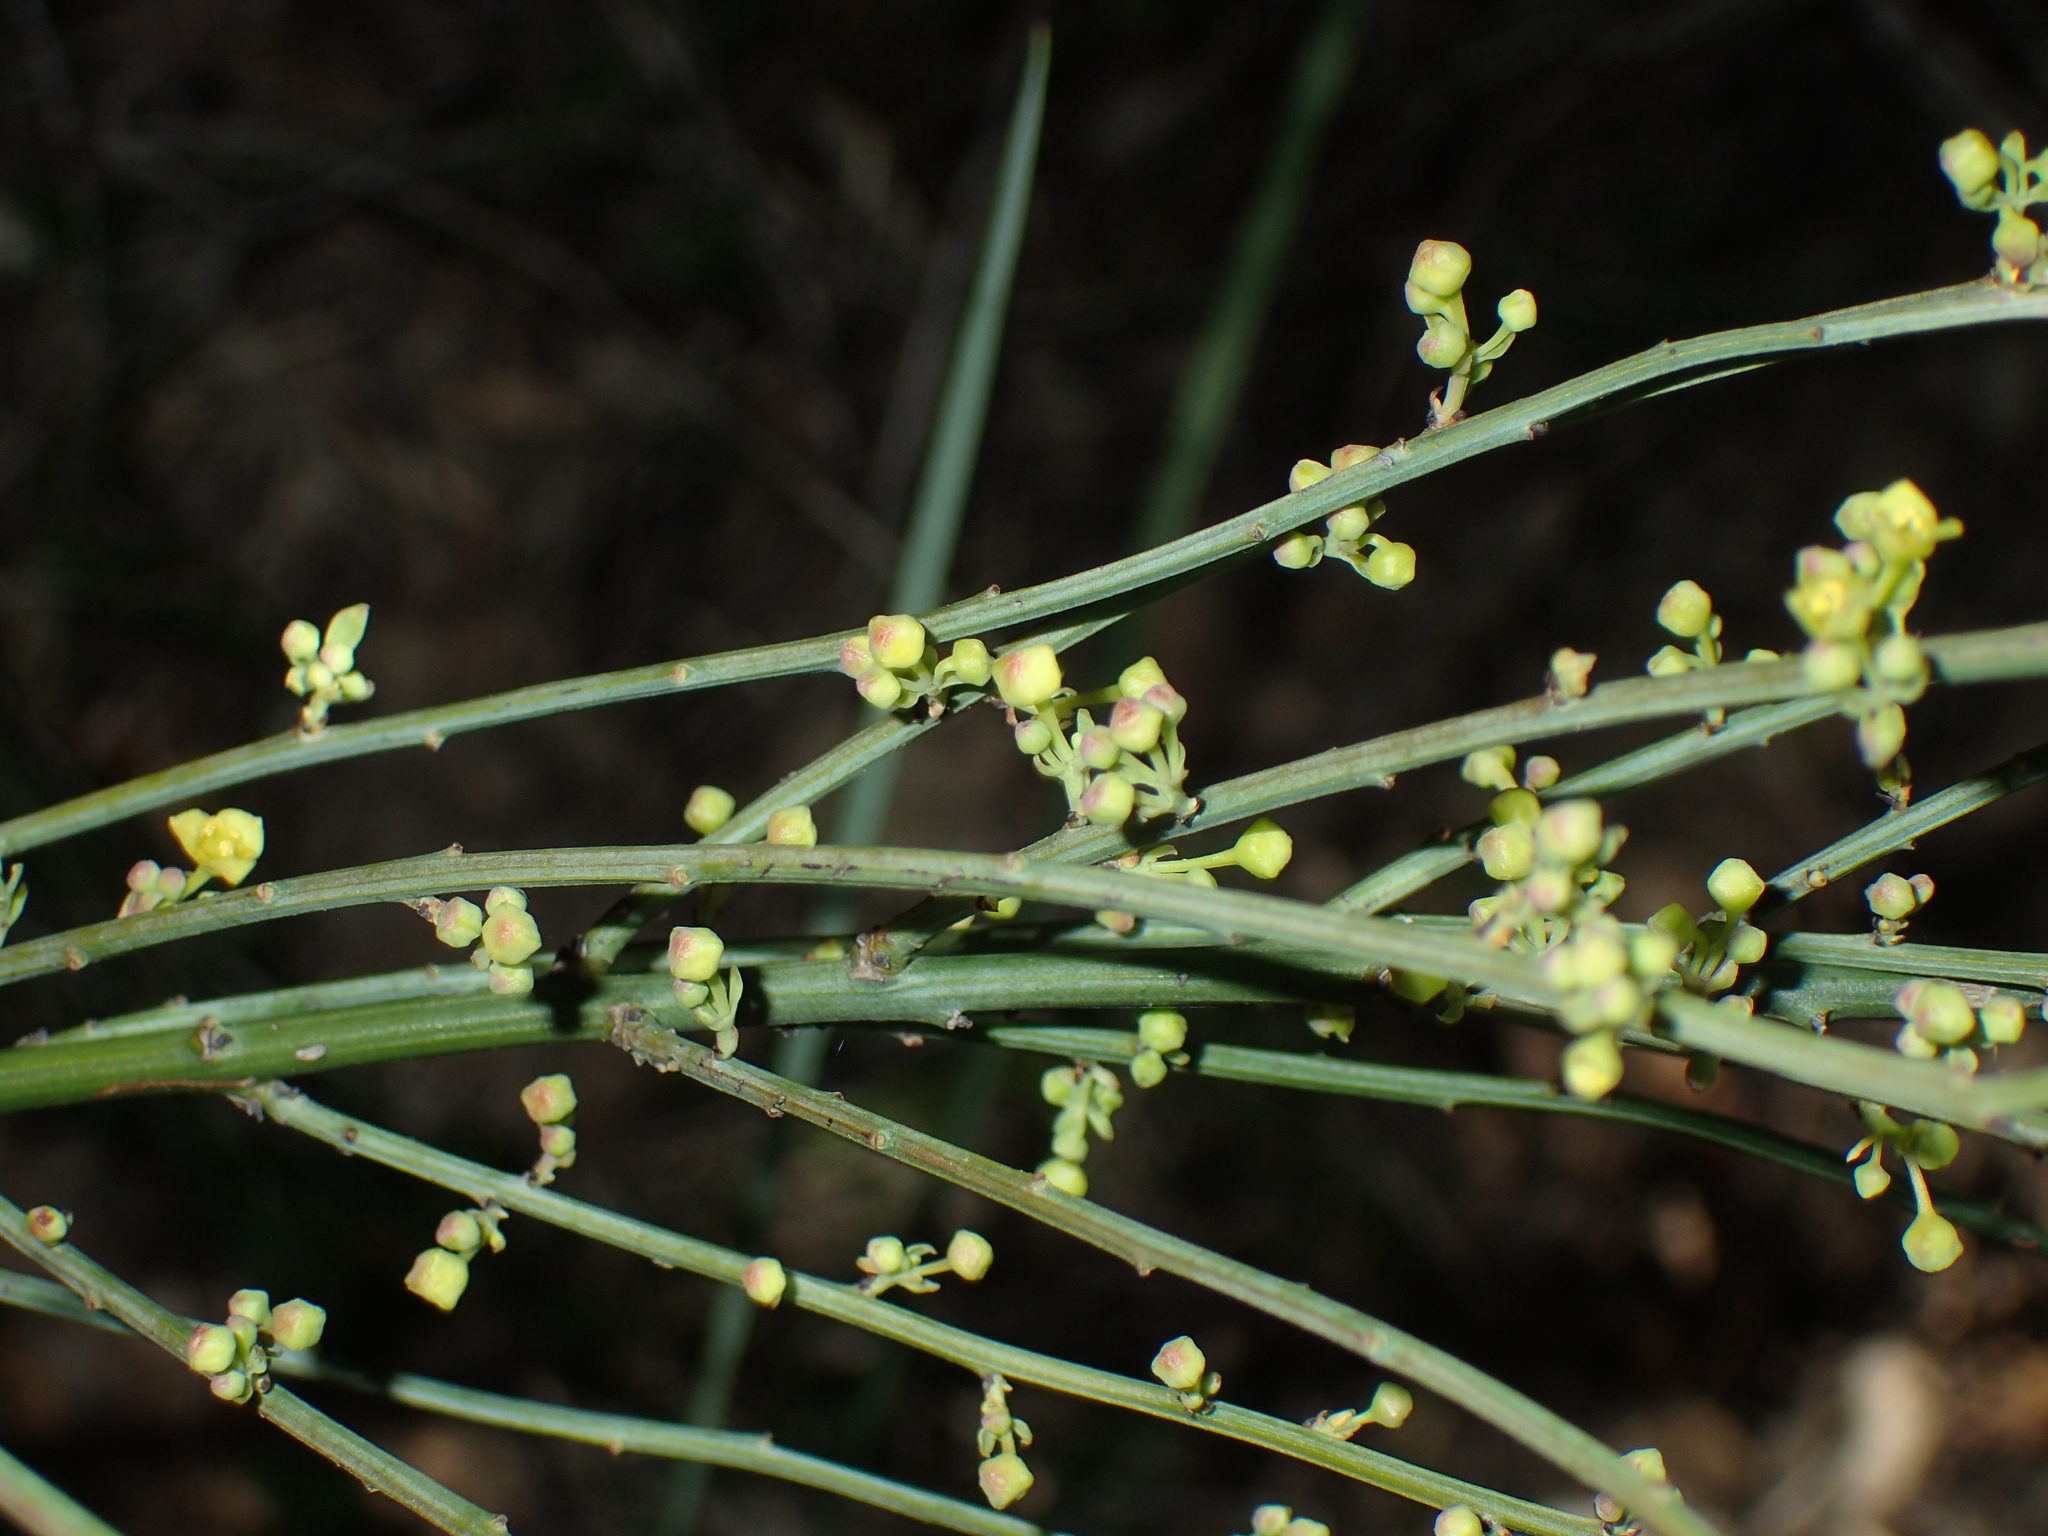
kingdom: Plantae
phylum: Tracheophyta
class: Magnoliopsida
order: Santalales
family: Santalaceae
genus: Osyris
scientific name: Osyris alba
